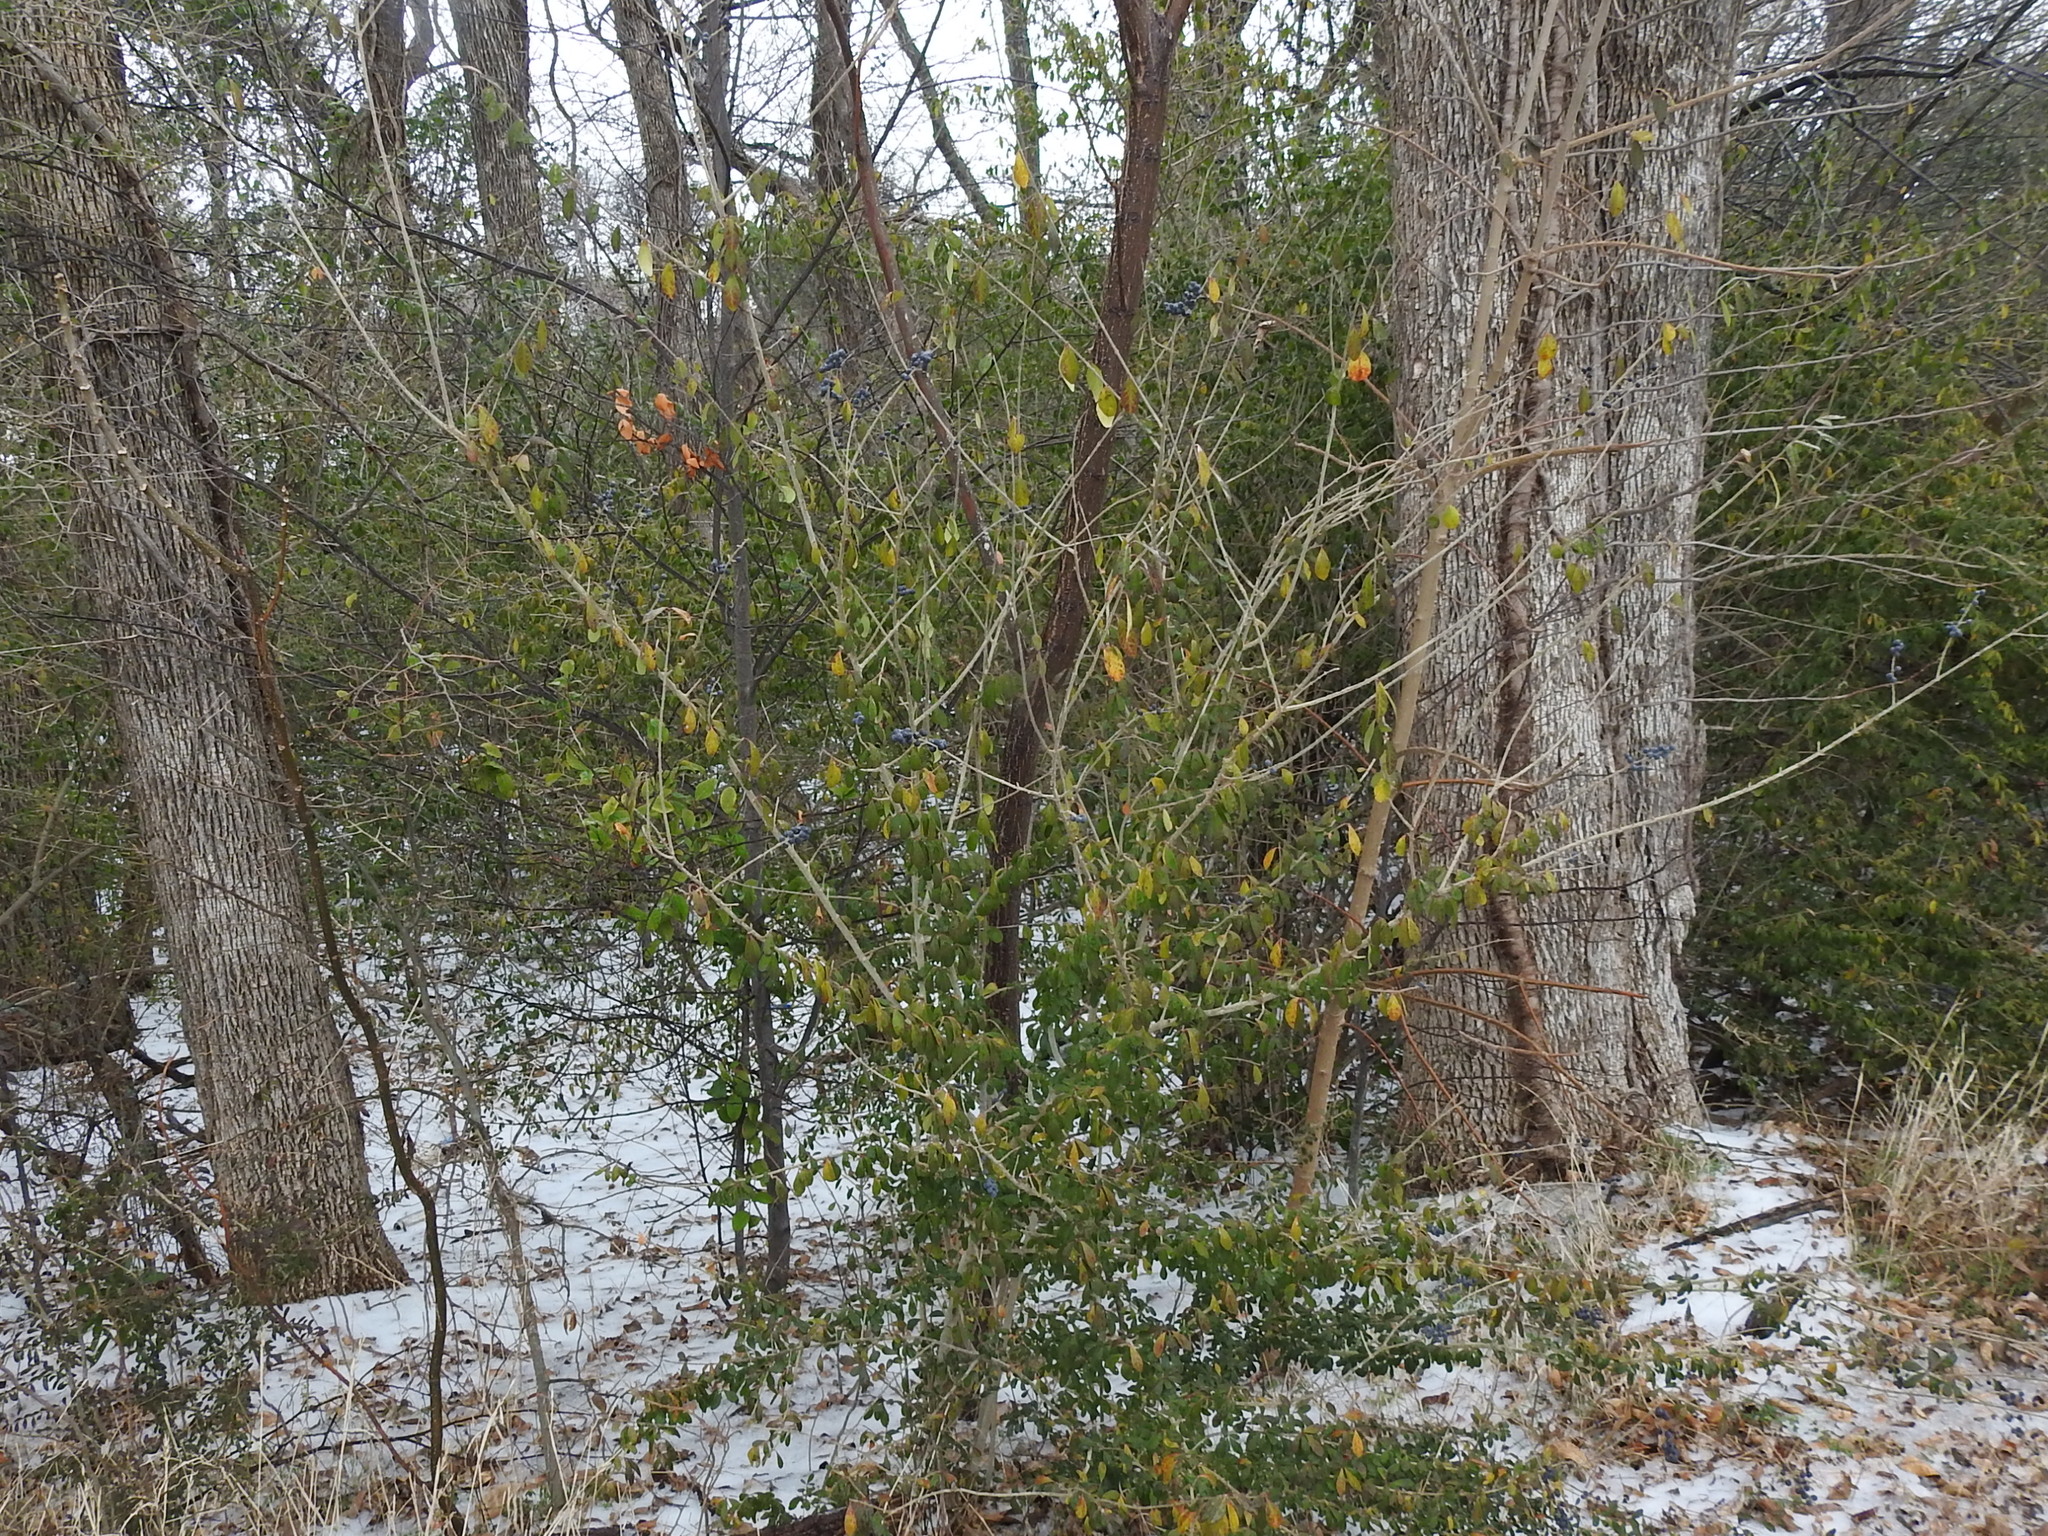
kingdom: Plantae
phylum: Tracheophyta
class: Magnoliopsida
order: Lamiales
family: Oleaceae
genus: Ligustrum
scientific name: Ligustrum quihoui
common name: Waxyleaf privet
